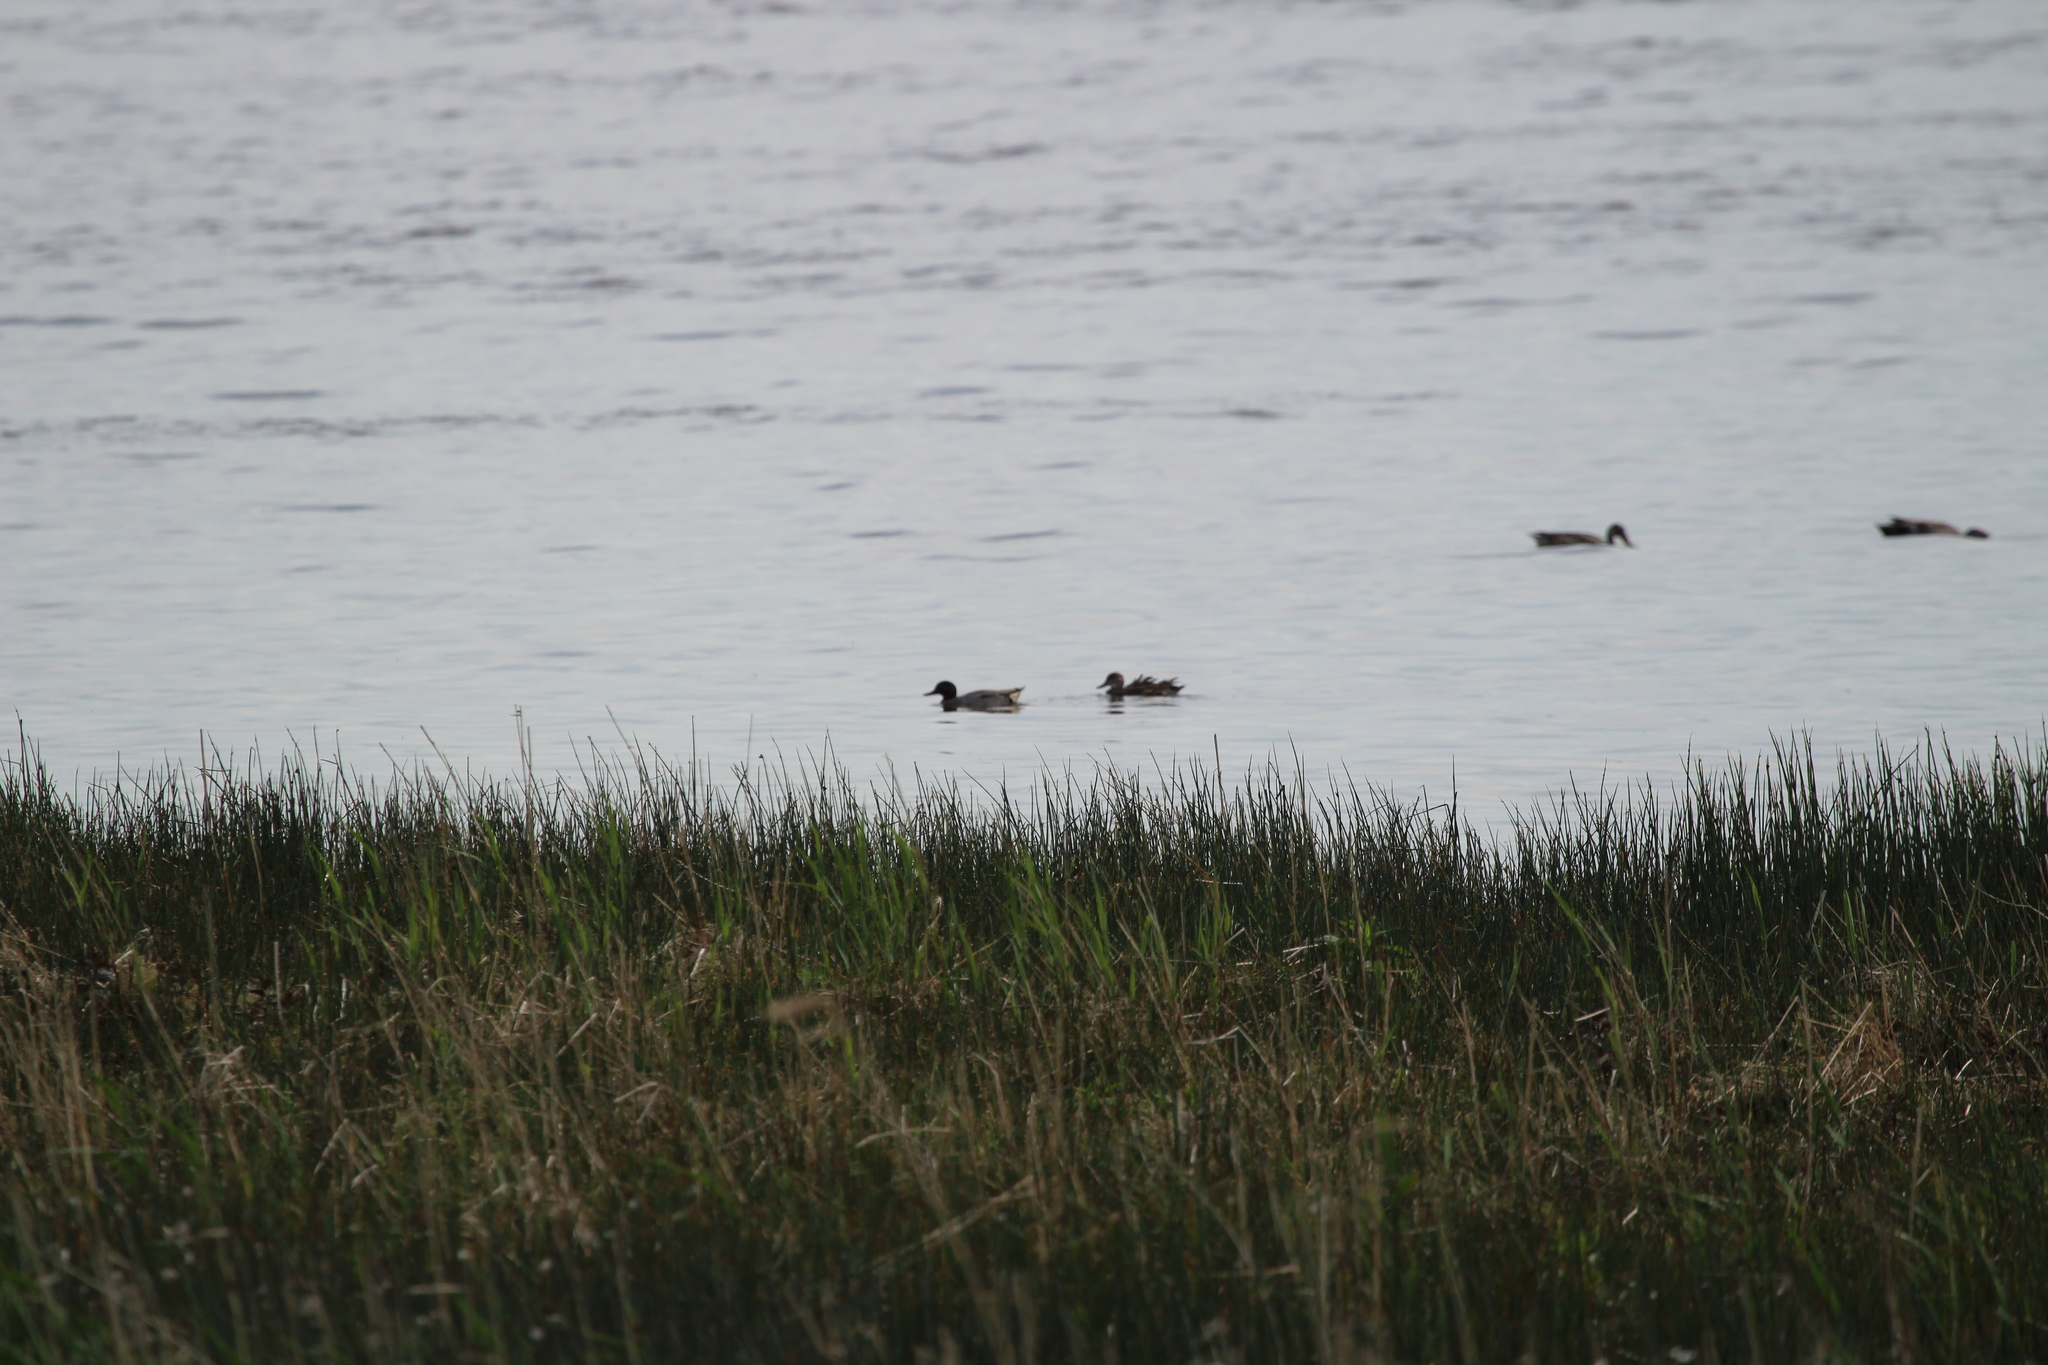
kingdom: Animalia
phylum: Chordata
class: Aves
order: Anseriformes
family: Anatidae
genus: Anas
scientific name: Anas crecca
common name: Eurasian teal
